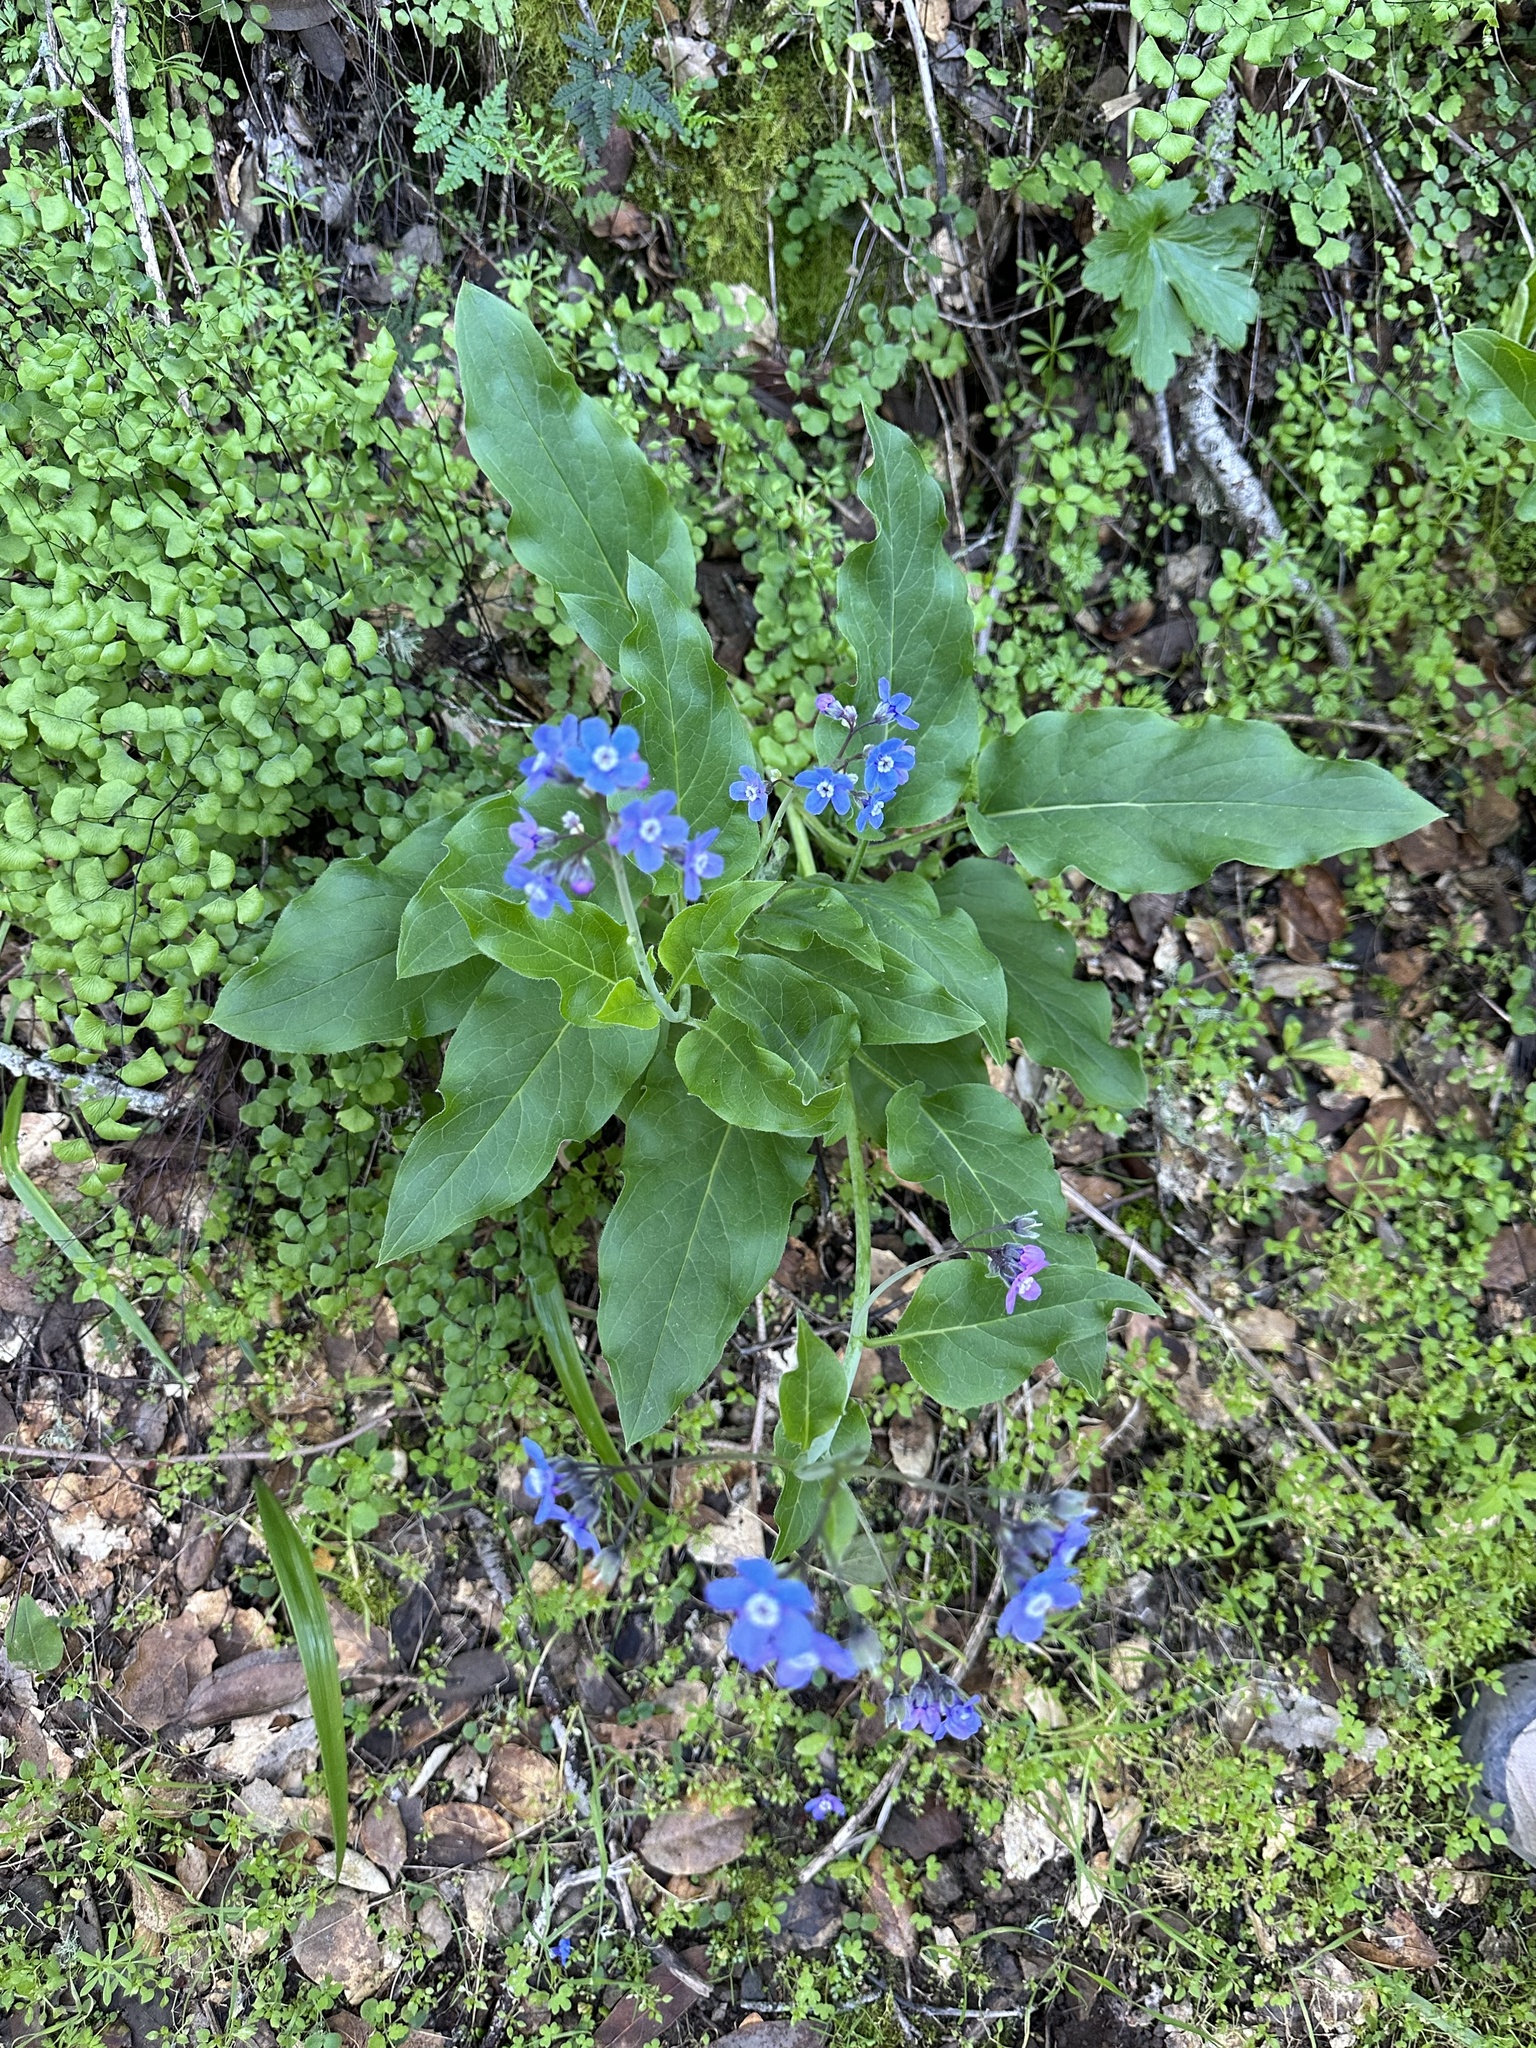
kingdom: Plantae
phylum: Tracheophyta
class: Magnoliopsida
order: Boraginales
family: Boraginaceae
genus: Adelinia
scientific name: Adelinia grande
